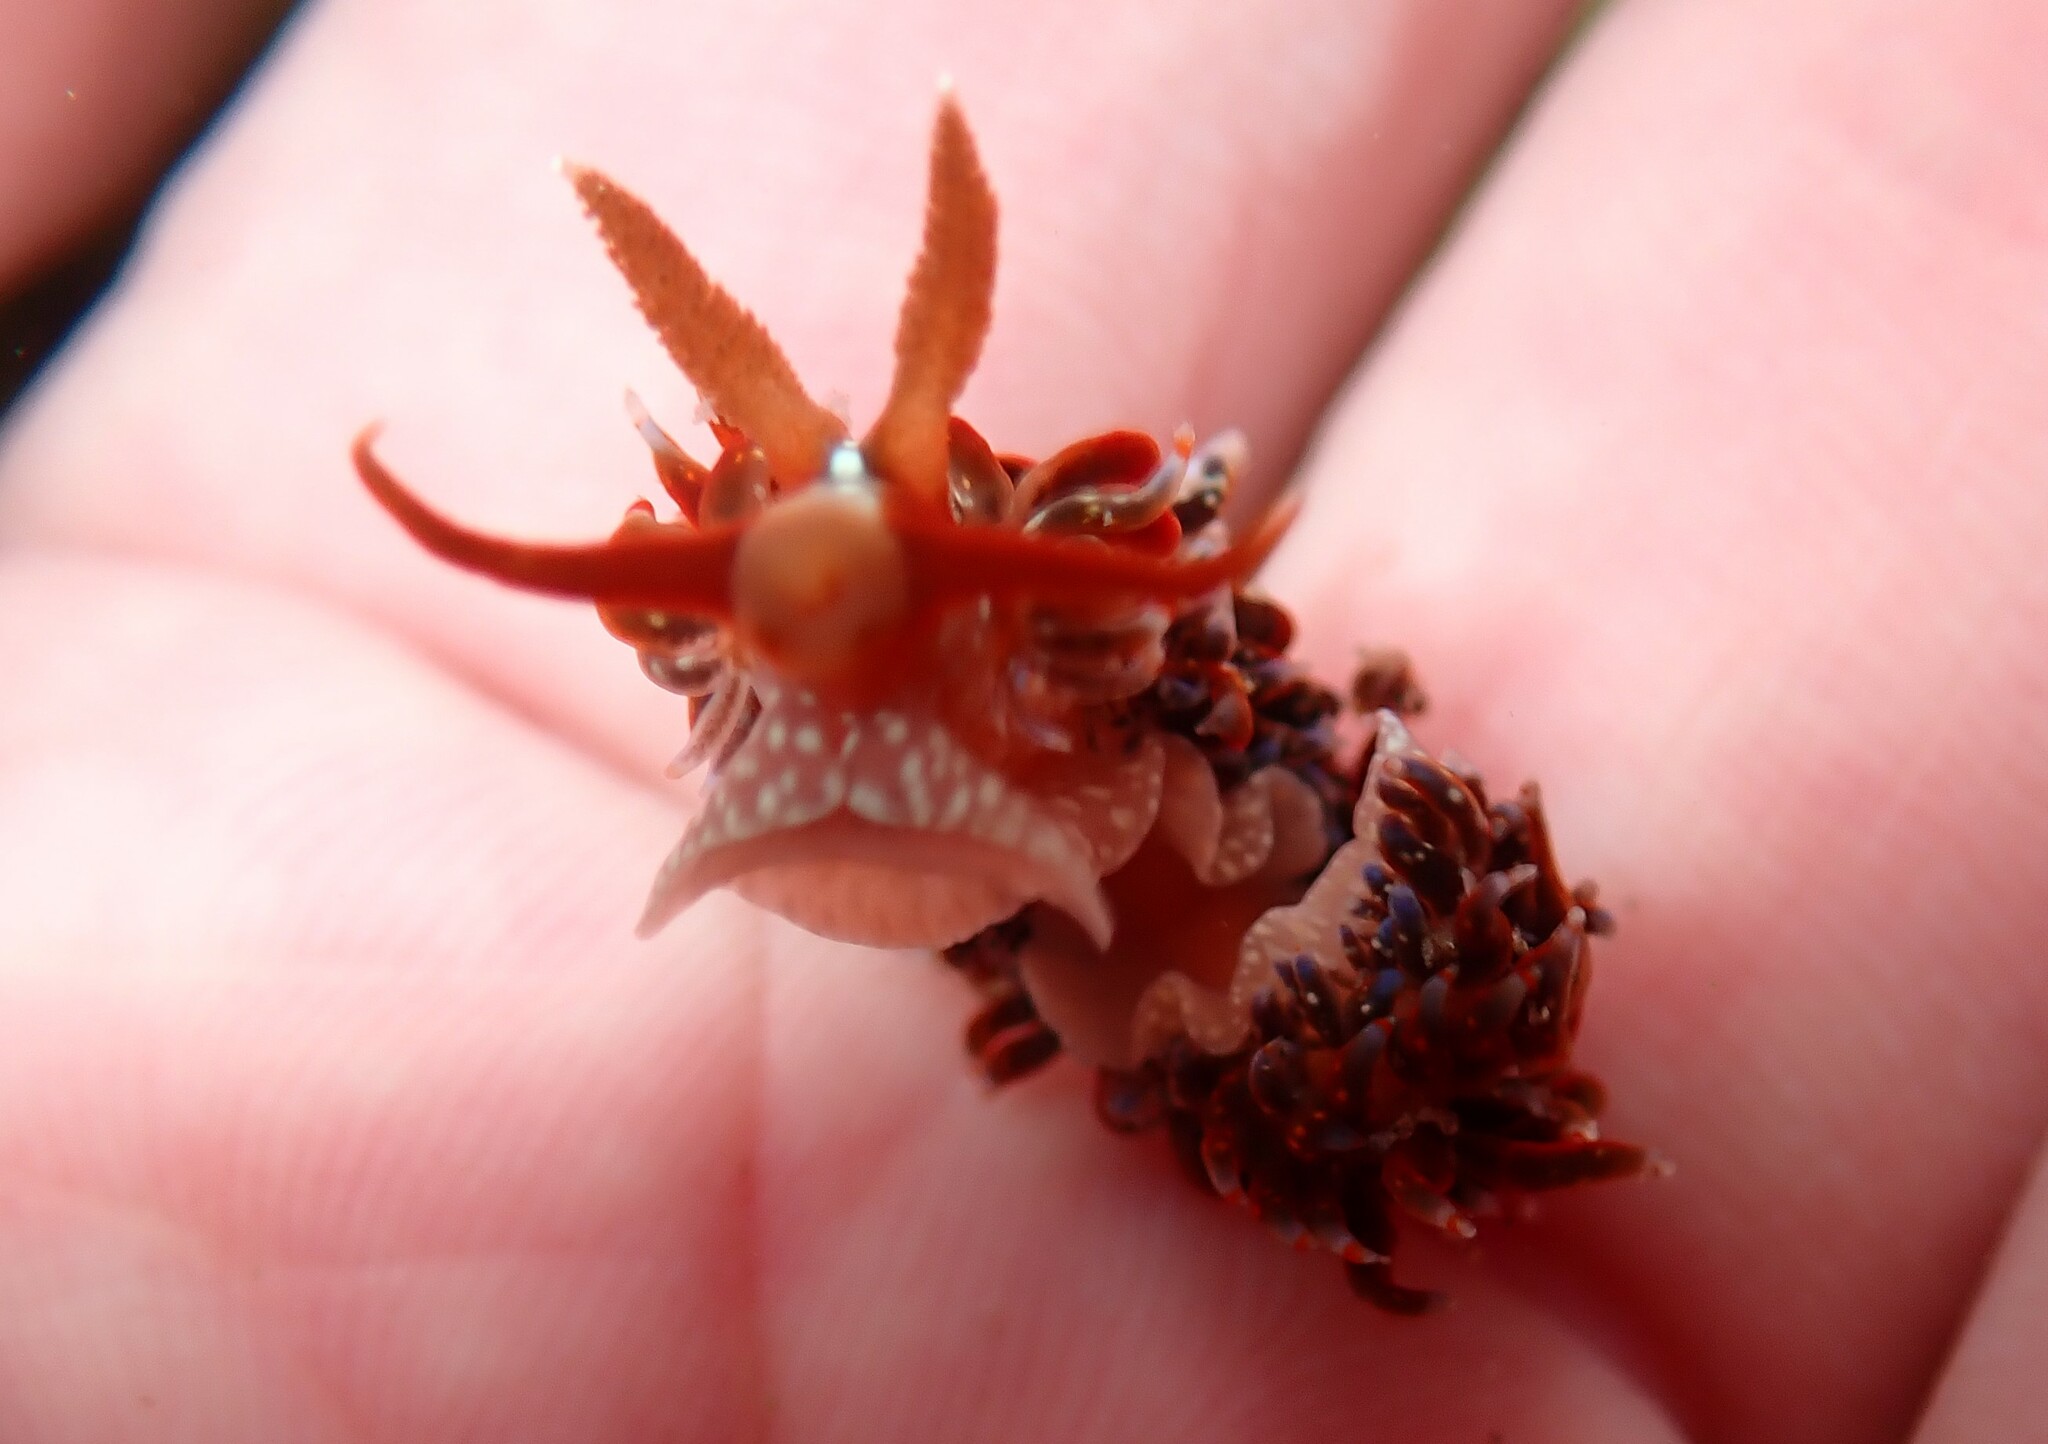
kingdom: Animalia
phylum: Mollusca
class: Gastropoda
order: Nudibranchia
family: Aeolidiidae
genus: Baeolidia
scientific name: Baeolidia australis
